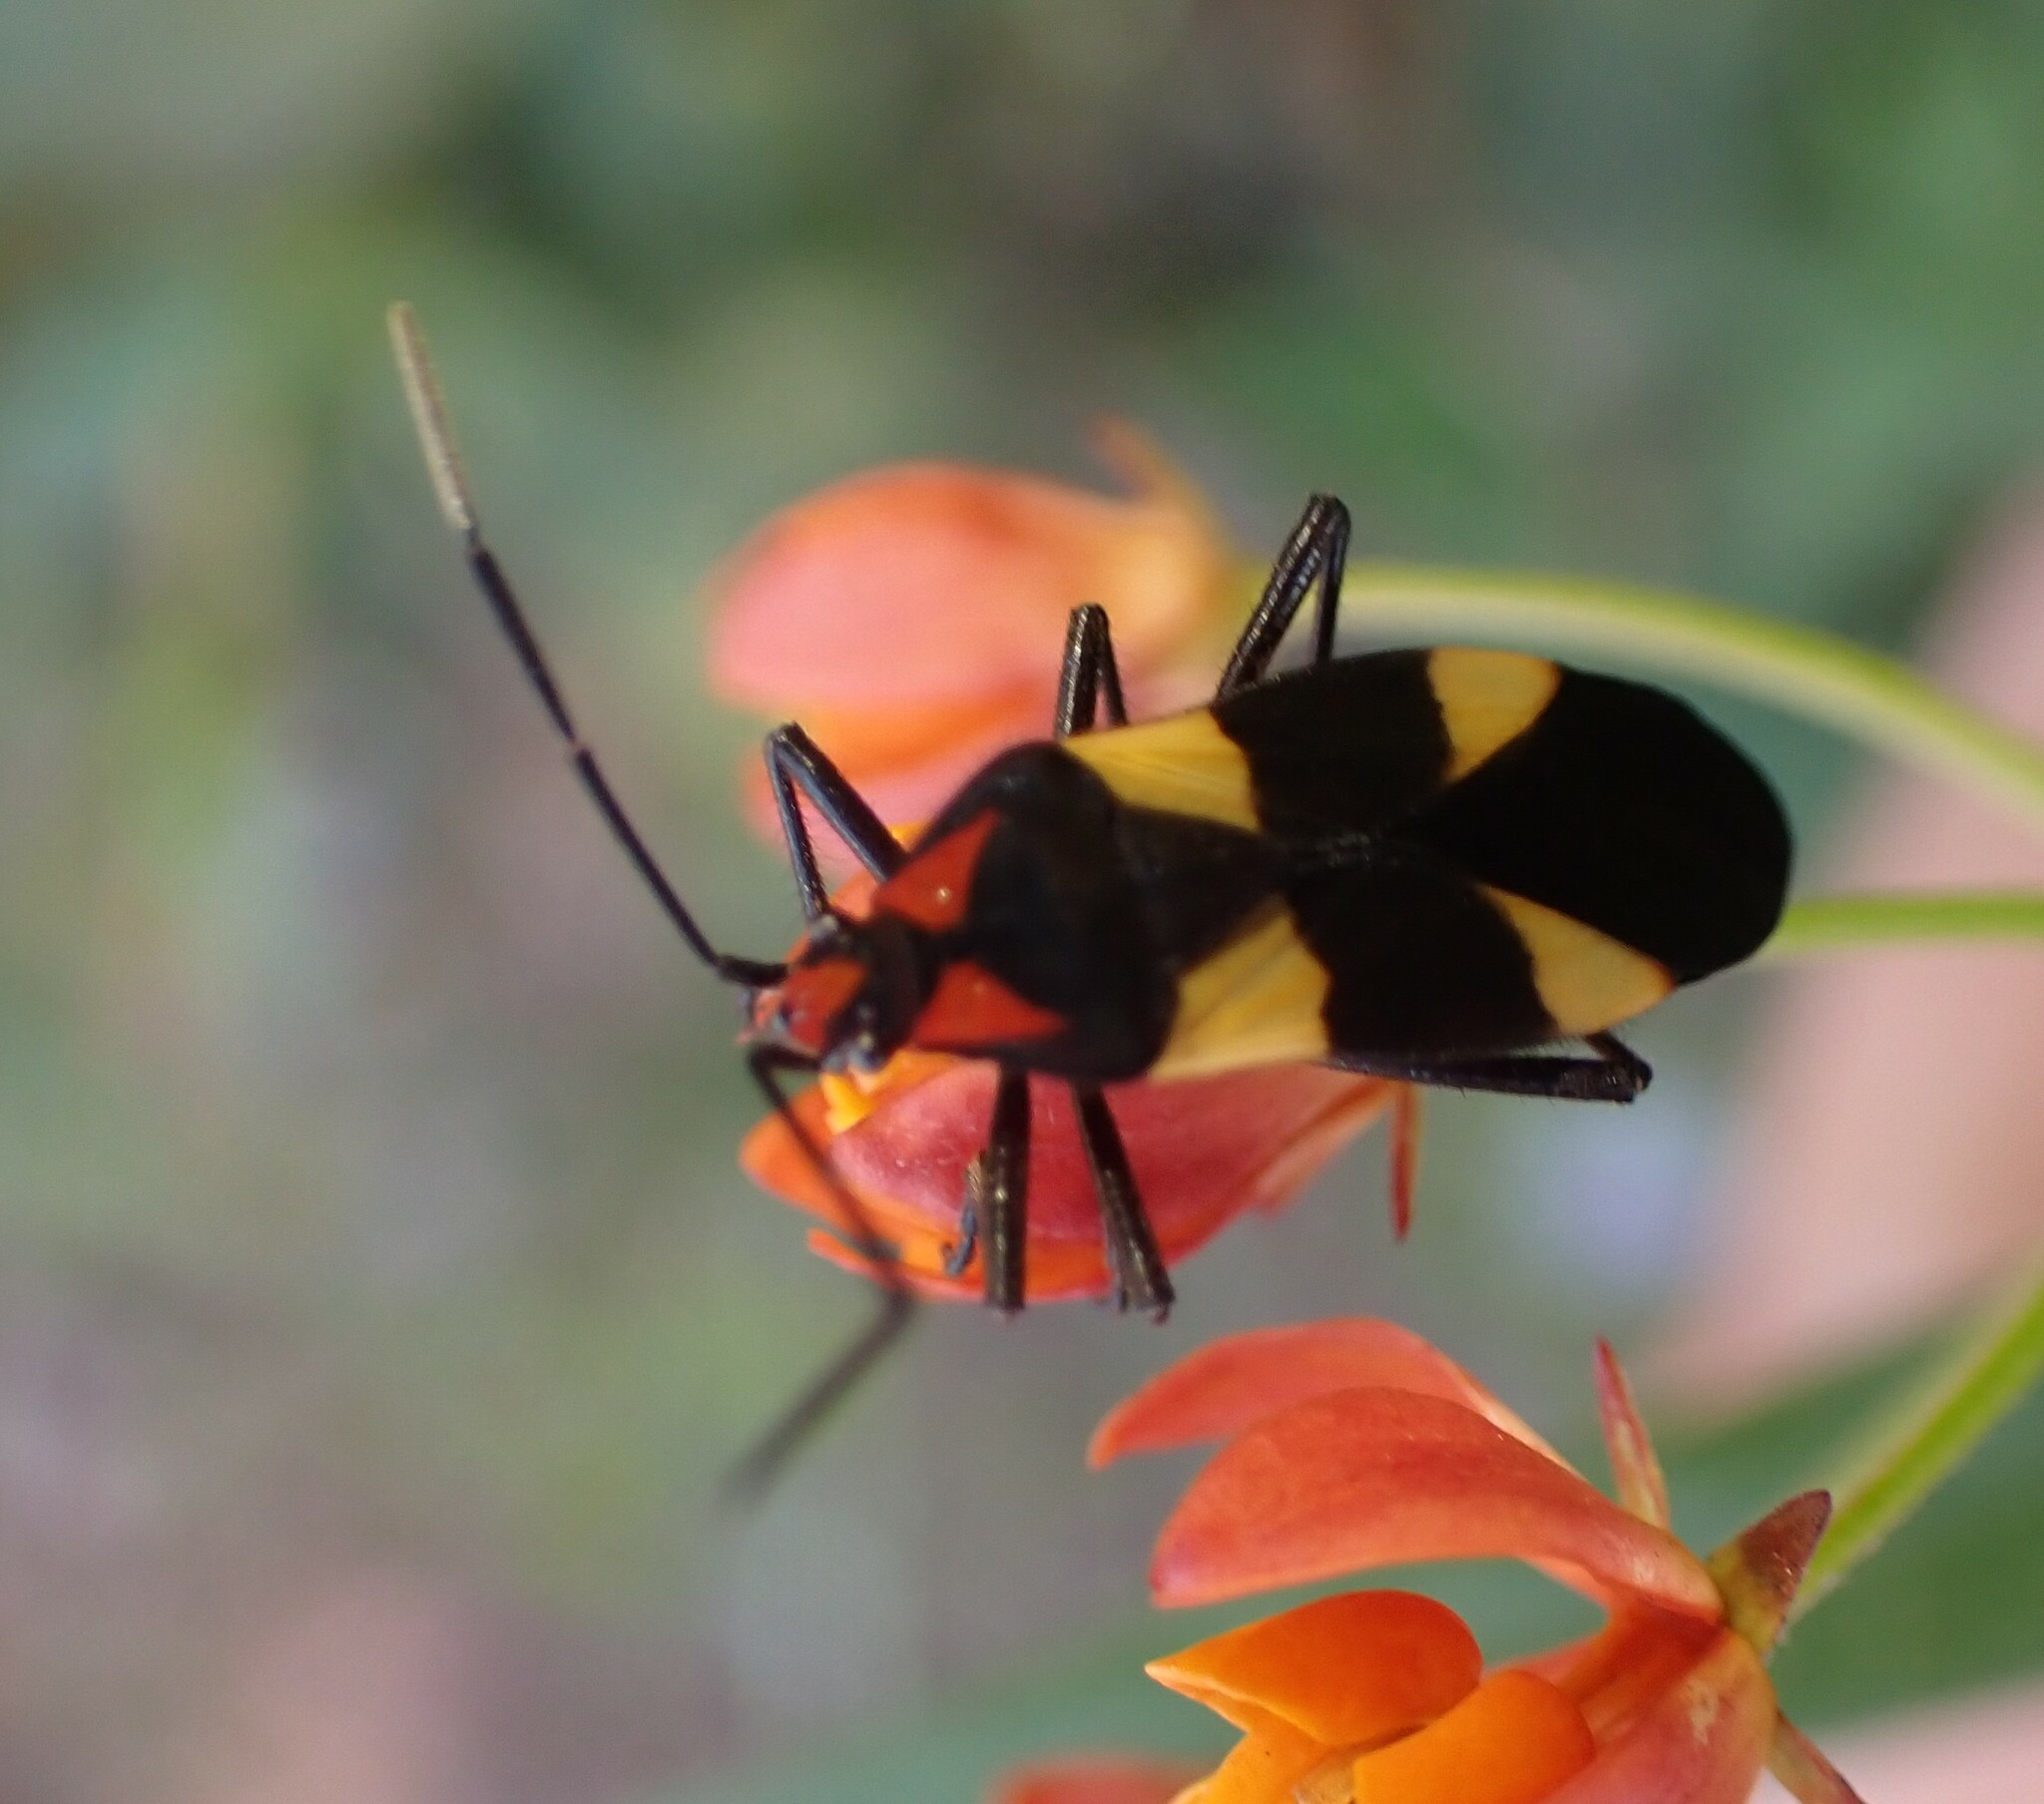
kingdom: Animalia
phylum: Arthropoda
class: Insecta
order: Hemiptera
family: Lygaeidae
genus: Oncopeltus
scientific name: Oncopeltus varicolor
